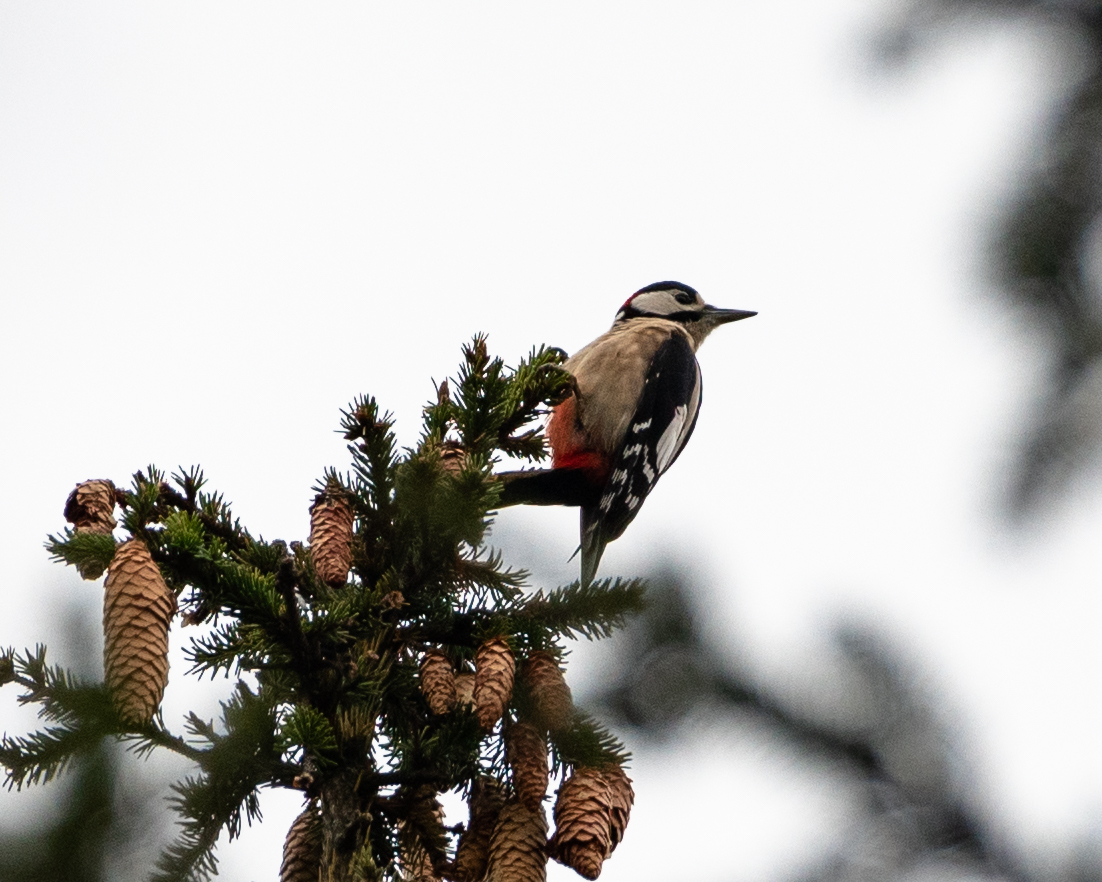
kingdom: Animalia
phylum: Chordata
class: Aves
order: Piciformes
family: Picidae
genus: Dendrocopos
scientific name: Dendrocopos major
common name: Great spotted woodpecker
